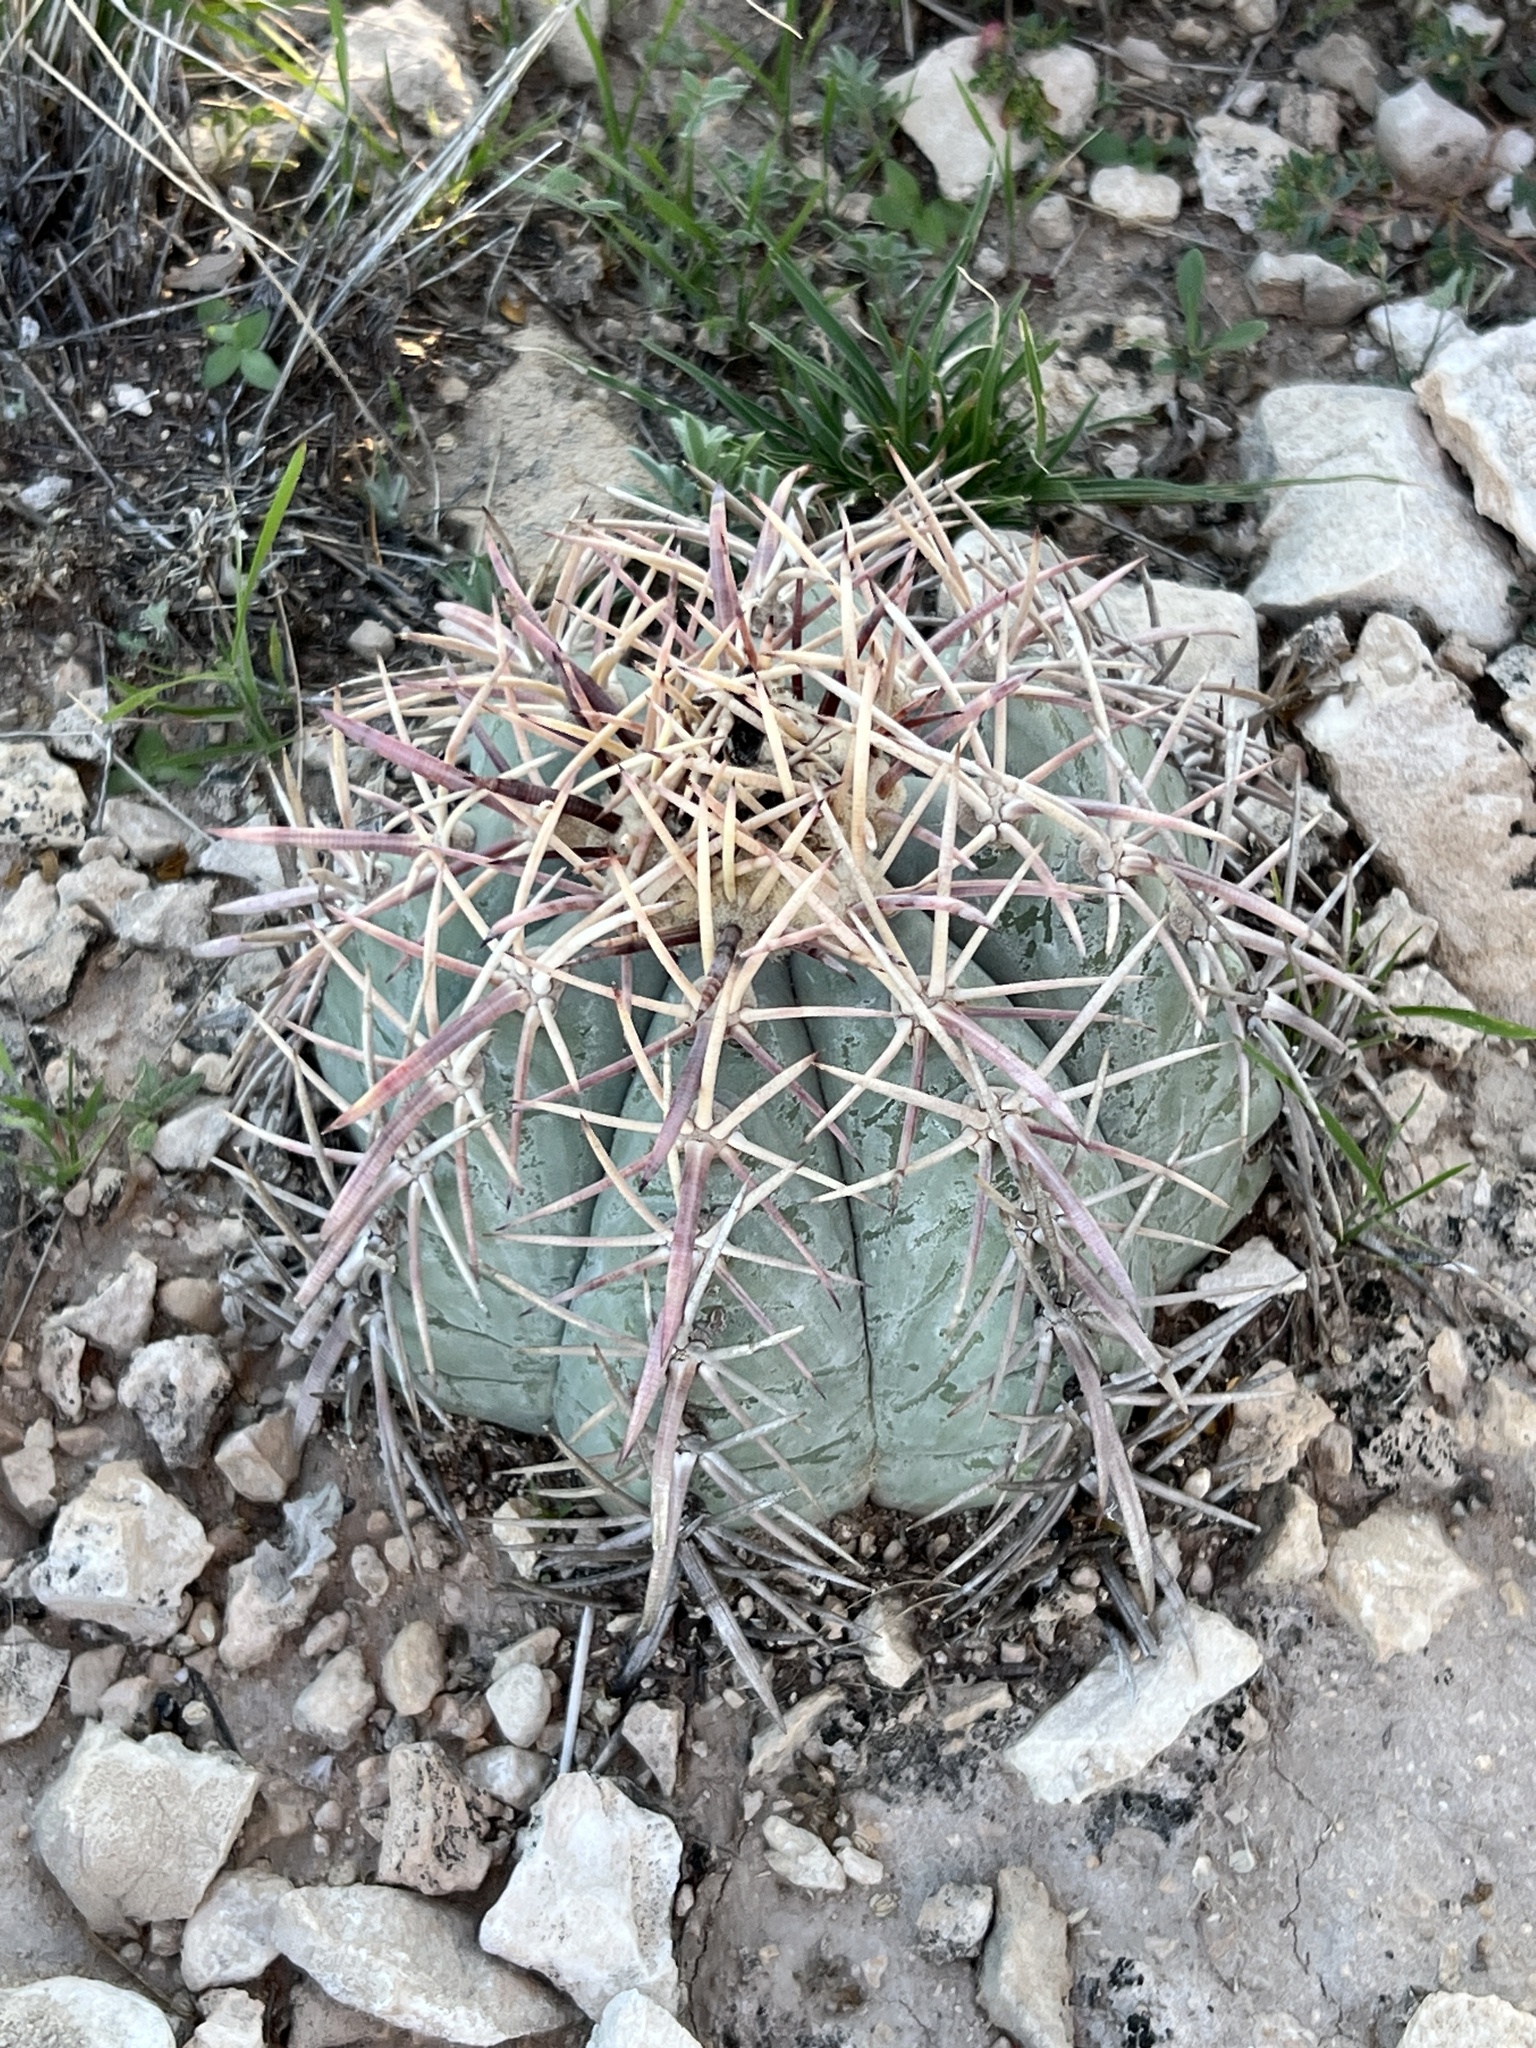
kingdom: Plantae
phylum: Tracheophyta
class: Magnoliopsida
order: Caryophyllales
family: Cactaceae
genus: Echinocactus
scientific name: Echinocactus horizonthalonius
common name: Devilshead
